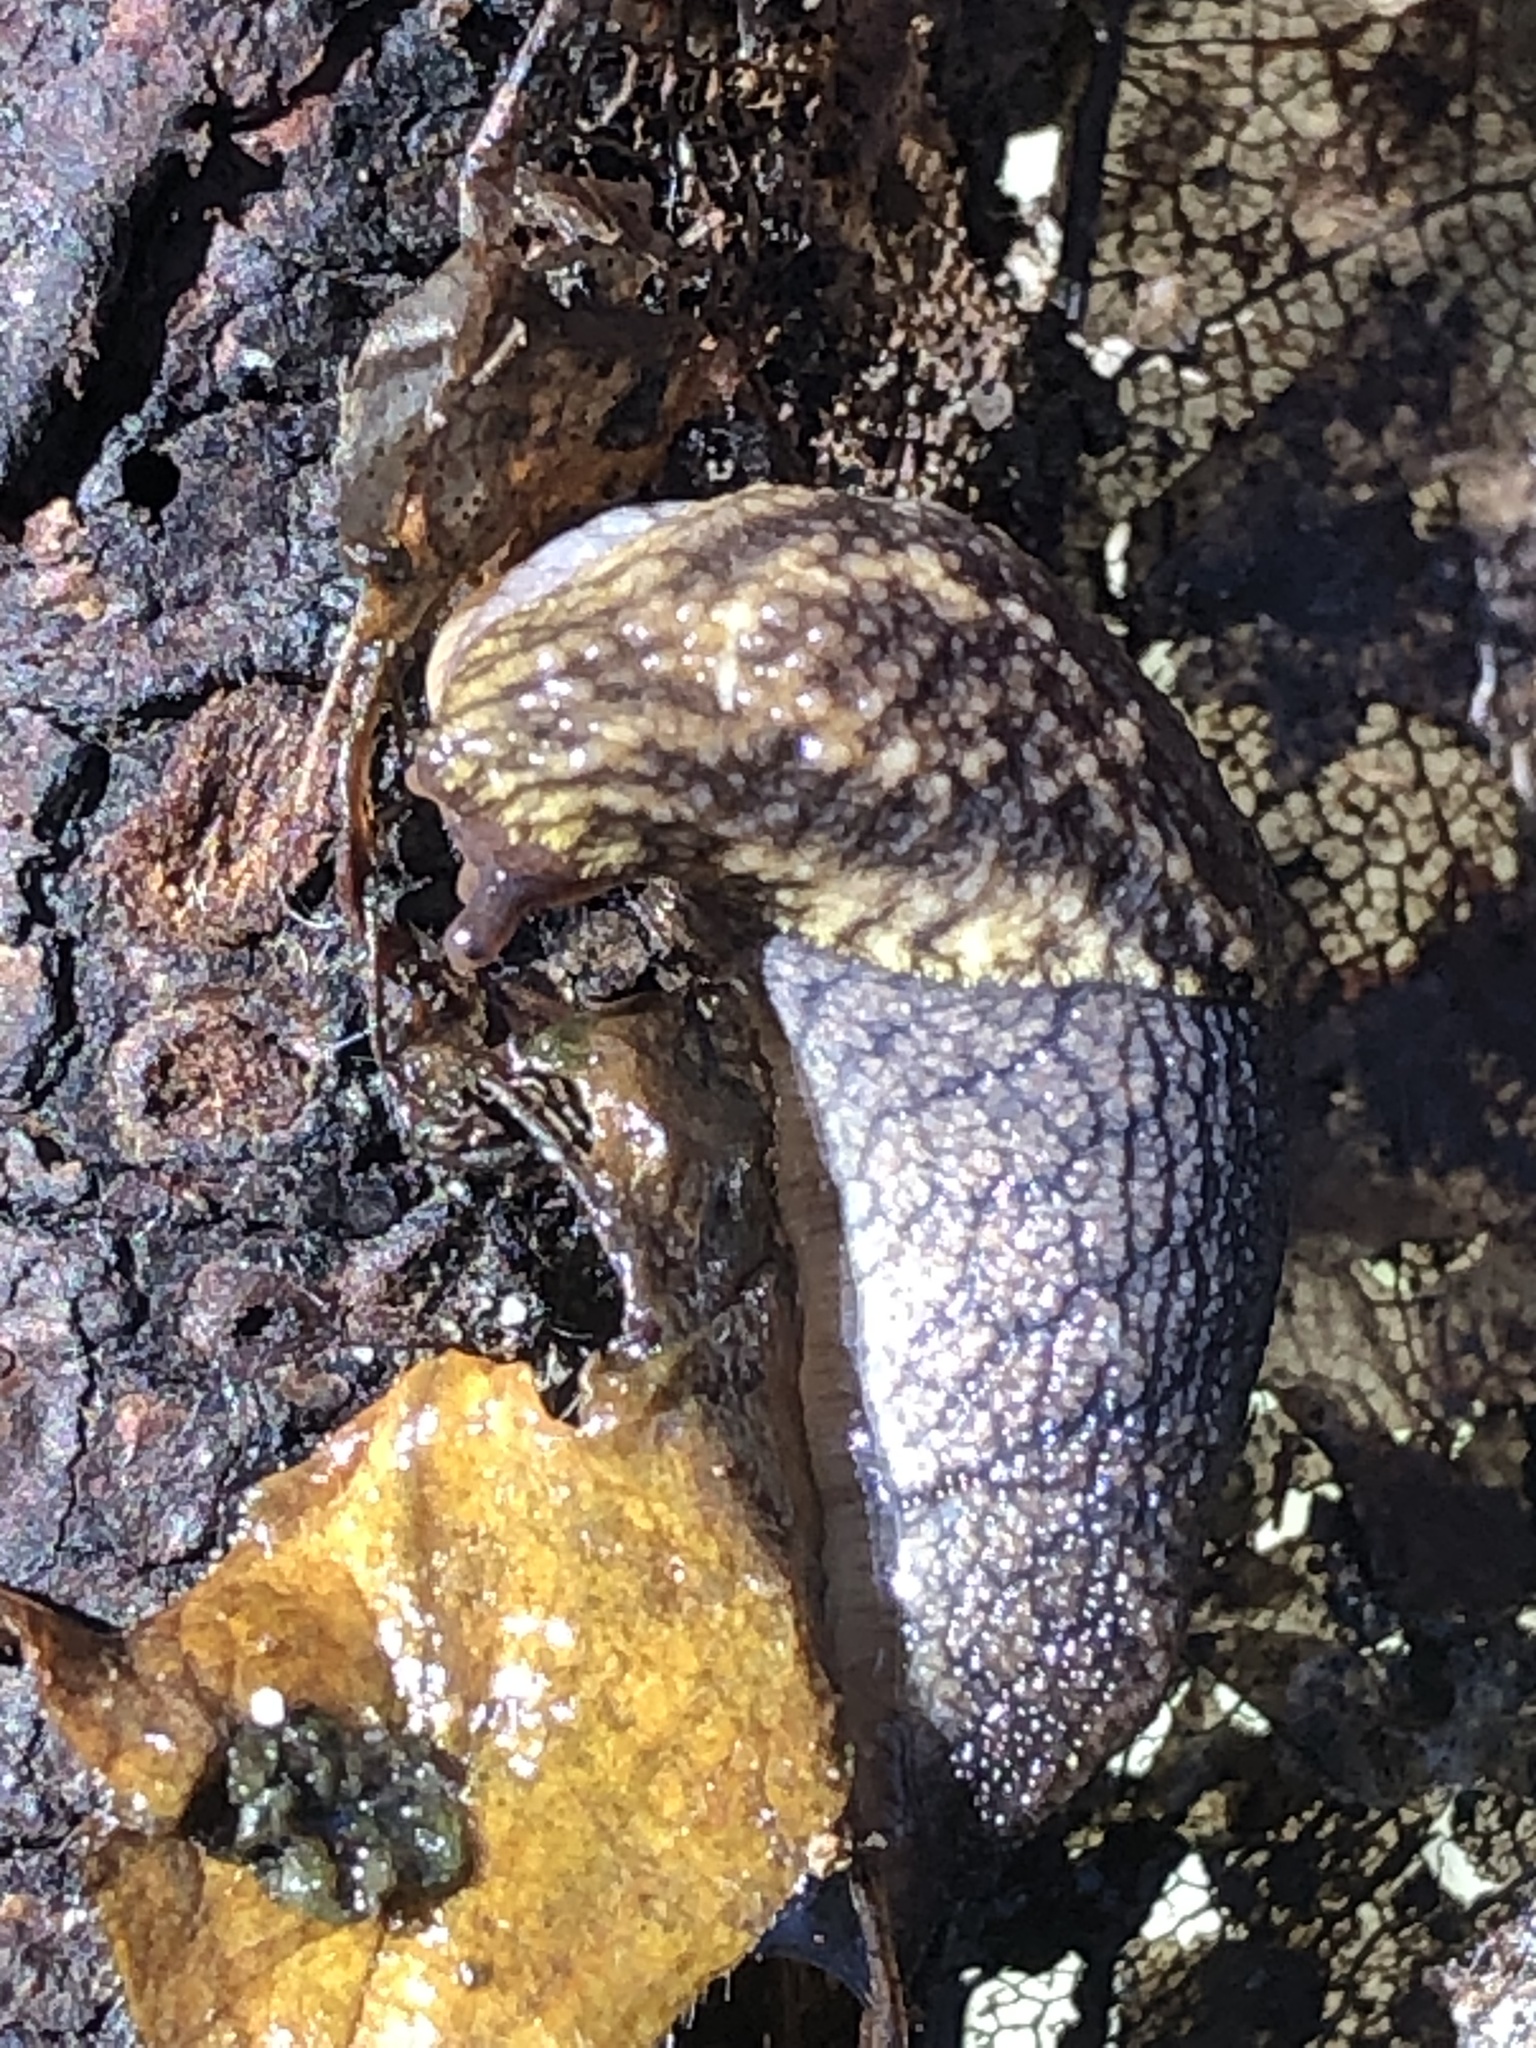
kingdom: Animalia
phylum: Mollusca
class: Gastropoda
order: Stylommatophora
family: Ariolimacidae
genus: Prophysaon
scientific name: Prophysaon andersonii
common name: Reticulate taildropper
